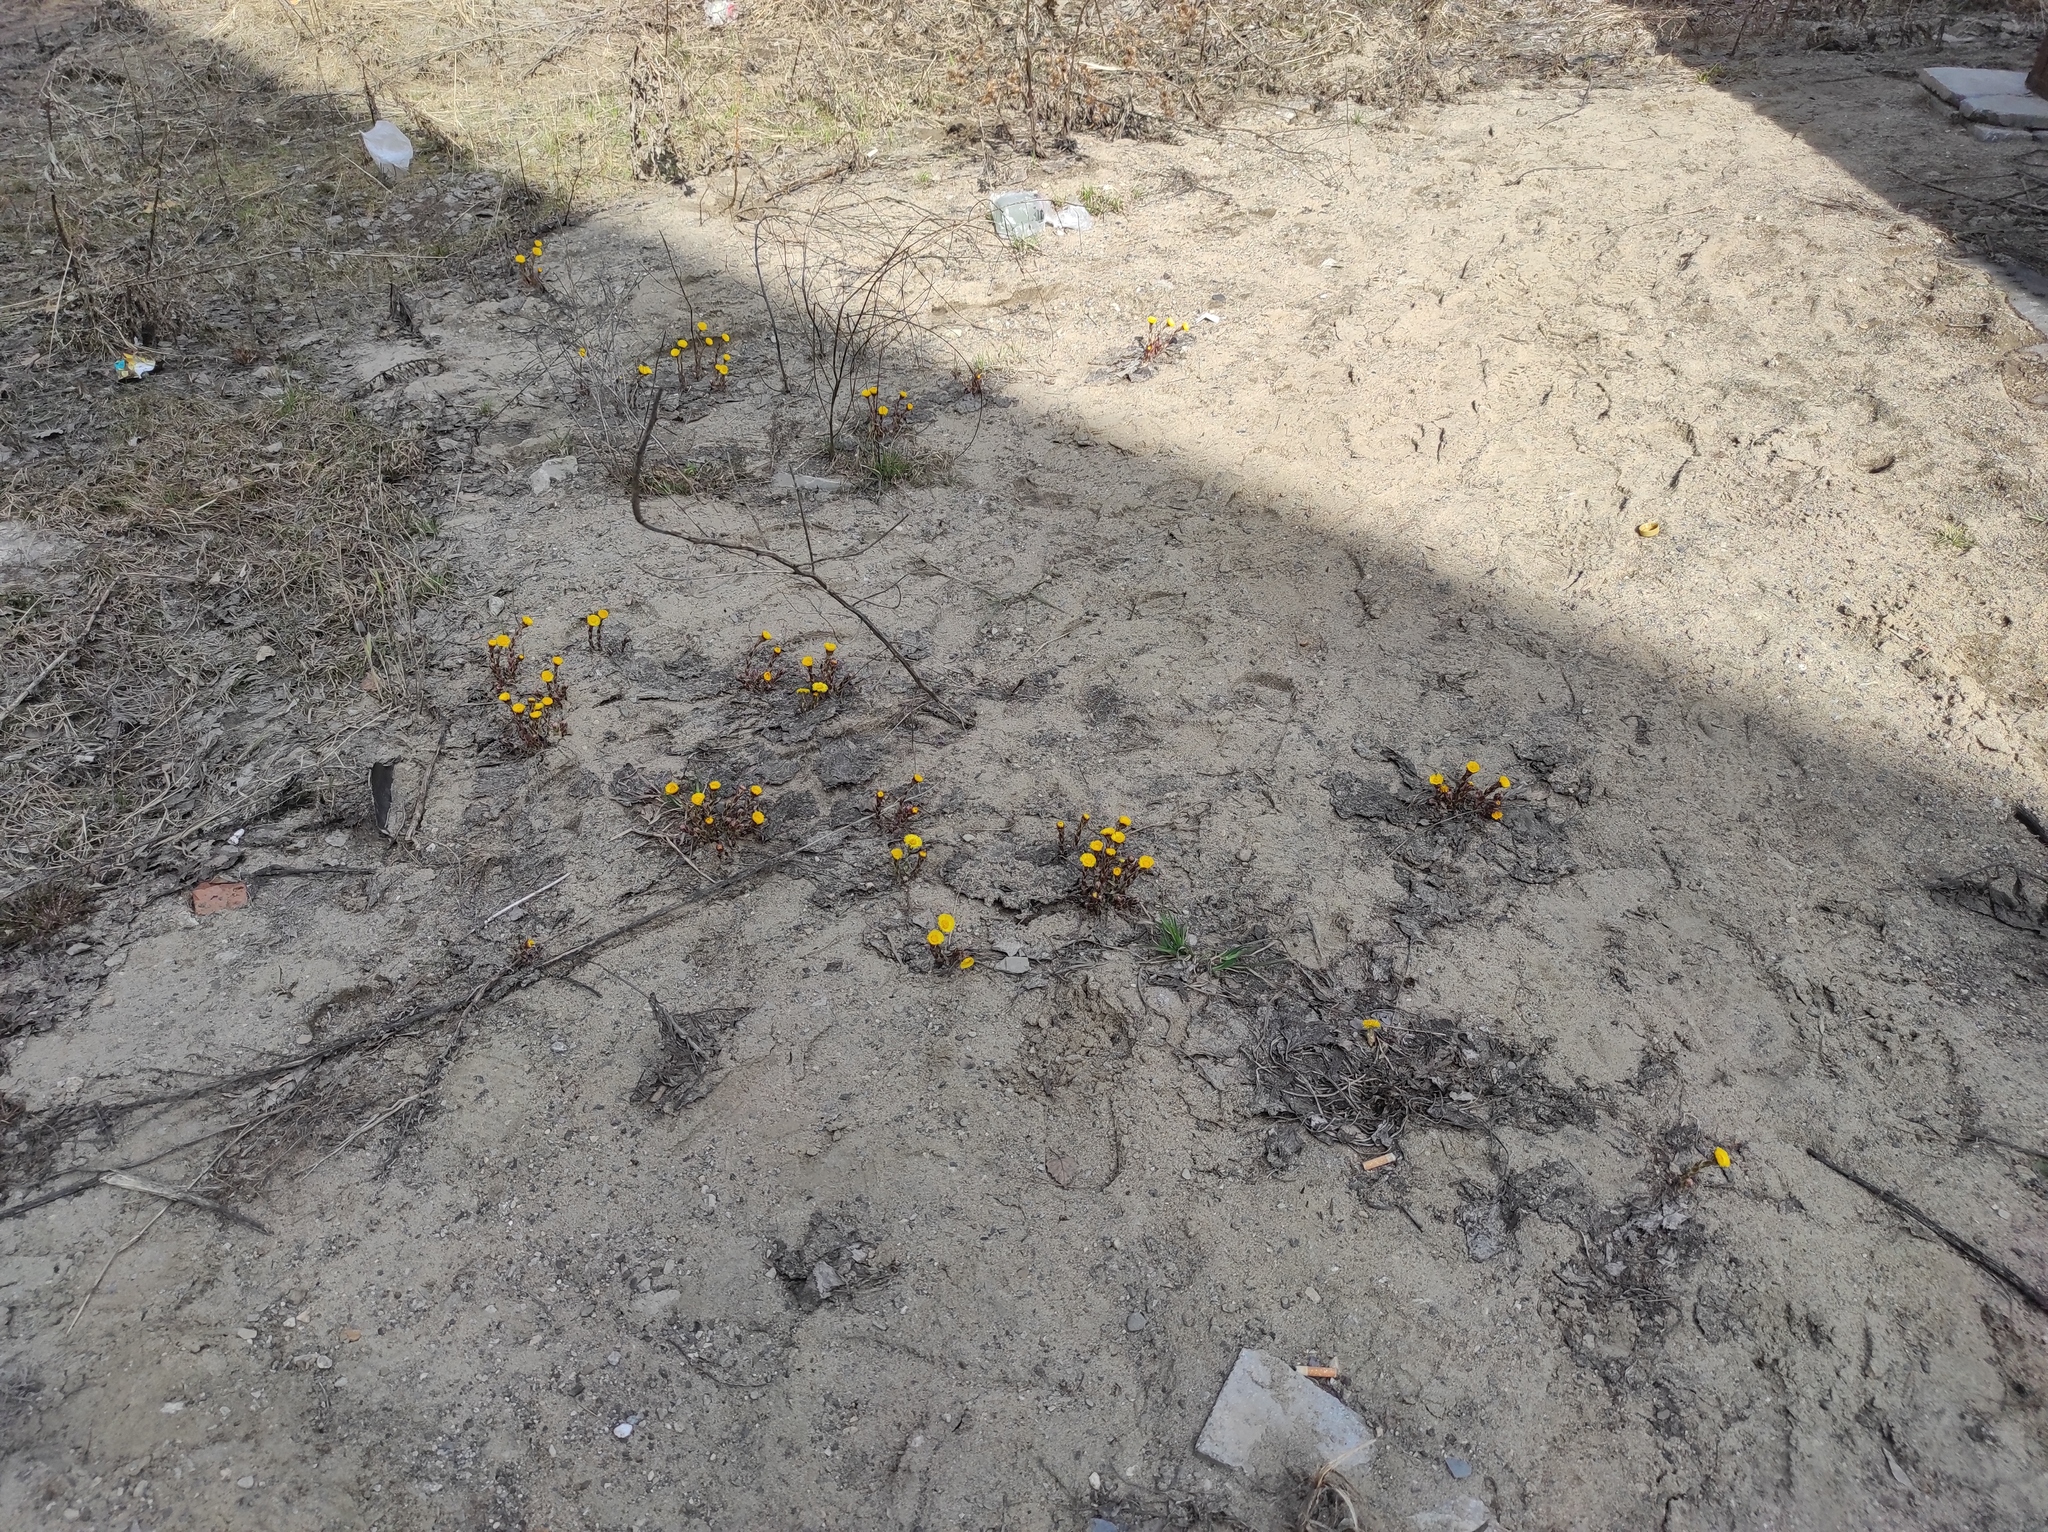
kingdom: Plantae
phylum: Tracheophyta
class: Magnoliopsida
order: Asterales
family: Asteraceae
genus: Tussilago
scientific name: Tussilago farfara
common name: Coltsfoot
